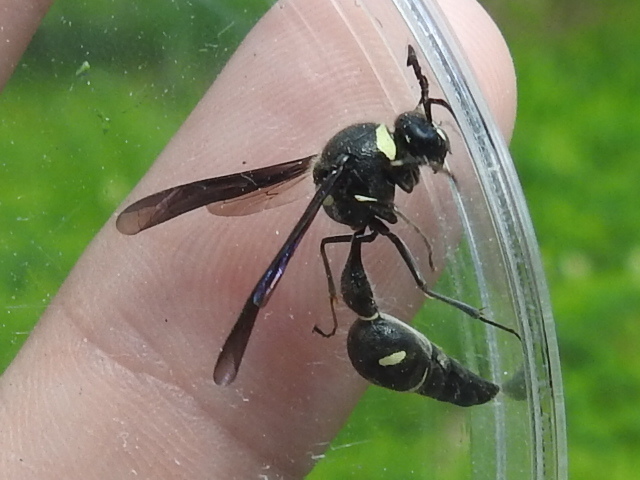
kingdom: Animalia
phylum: Arthropoda
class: Insecta
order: Hymenoptera
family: Vespidae
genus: Eumenes
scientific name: Eumenes fraternus
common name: Fraternal potter wasp
